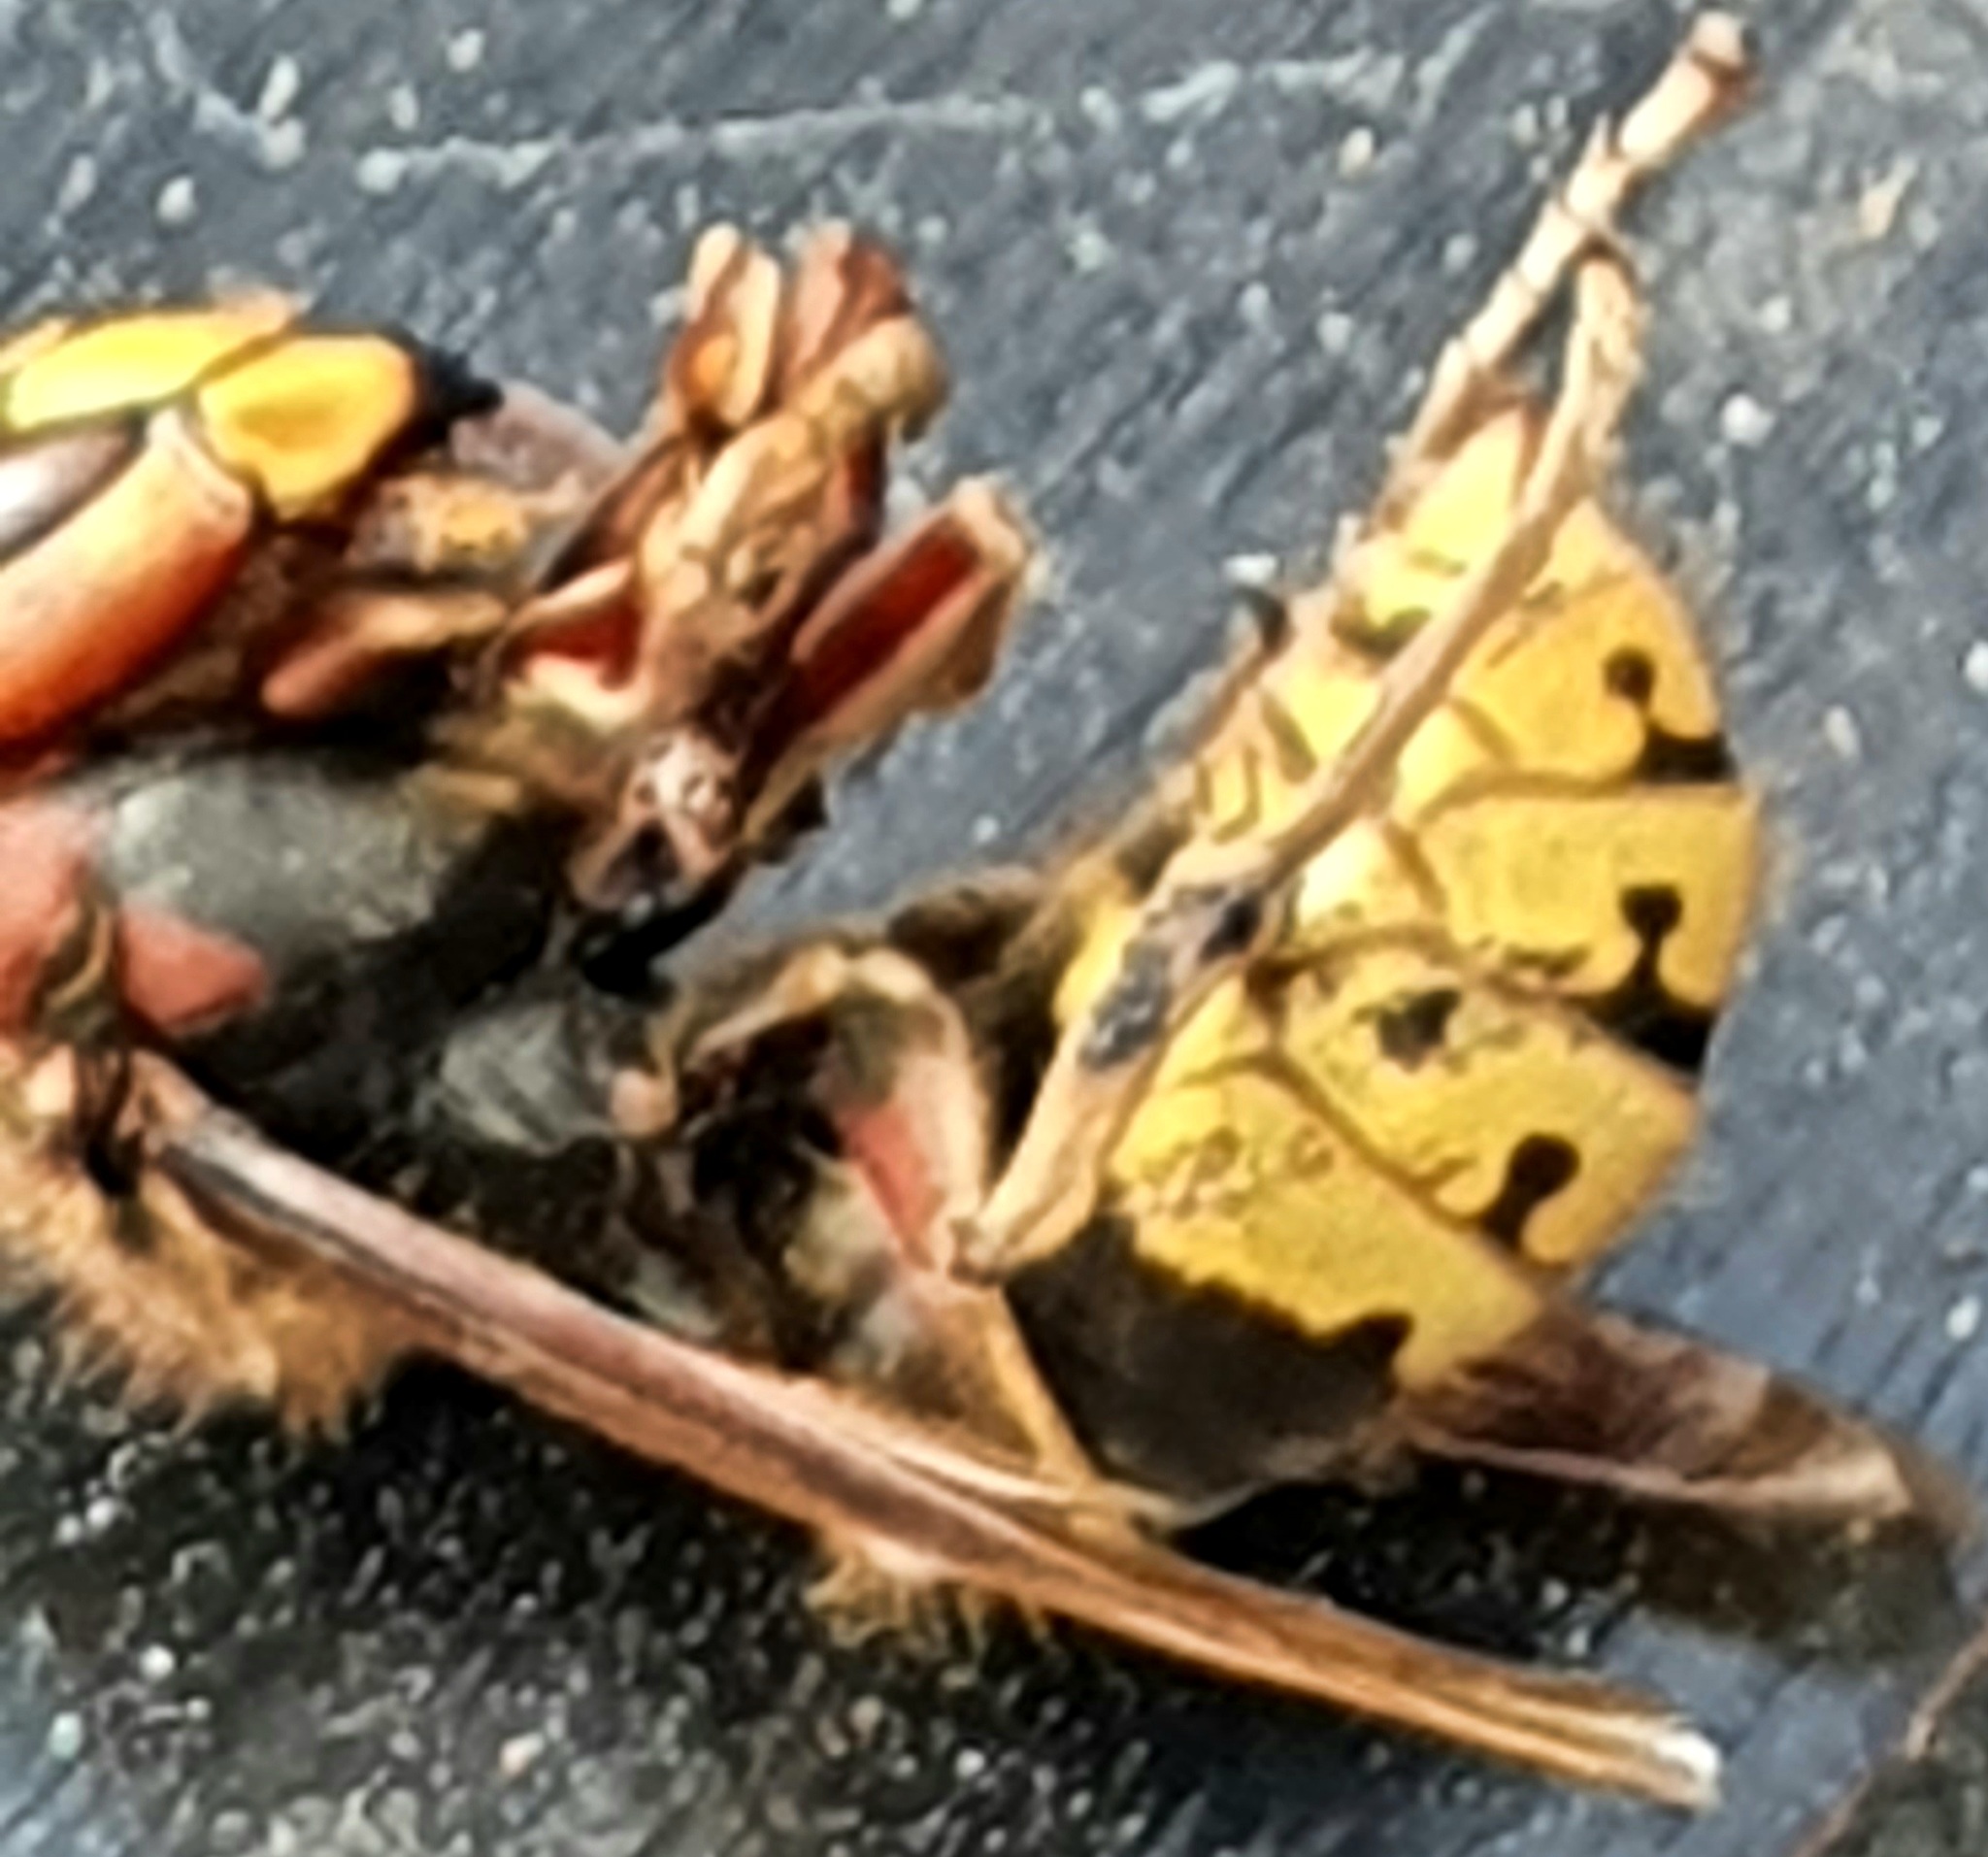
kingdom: Animalia
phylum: Arthropoda
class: Insecta
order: Hymenoptera
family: Vespidae
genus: Vespa
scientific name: Vespa crabro
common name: Hornet
